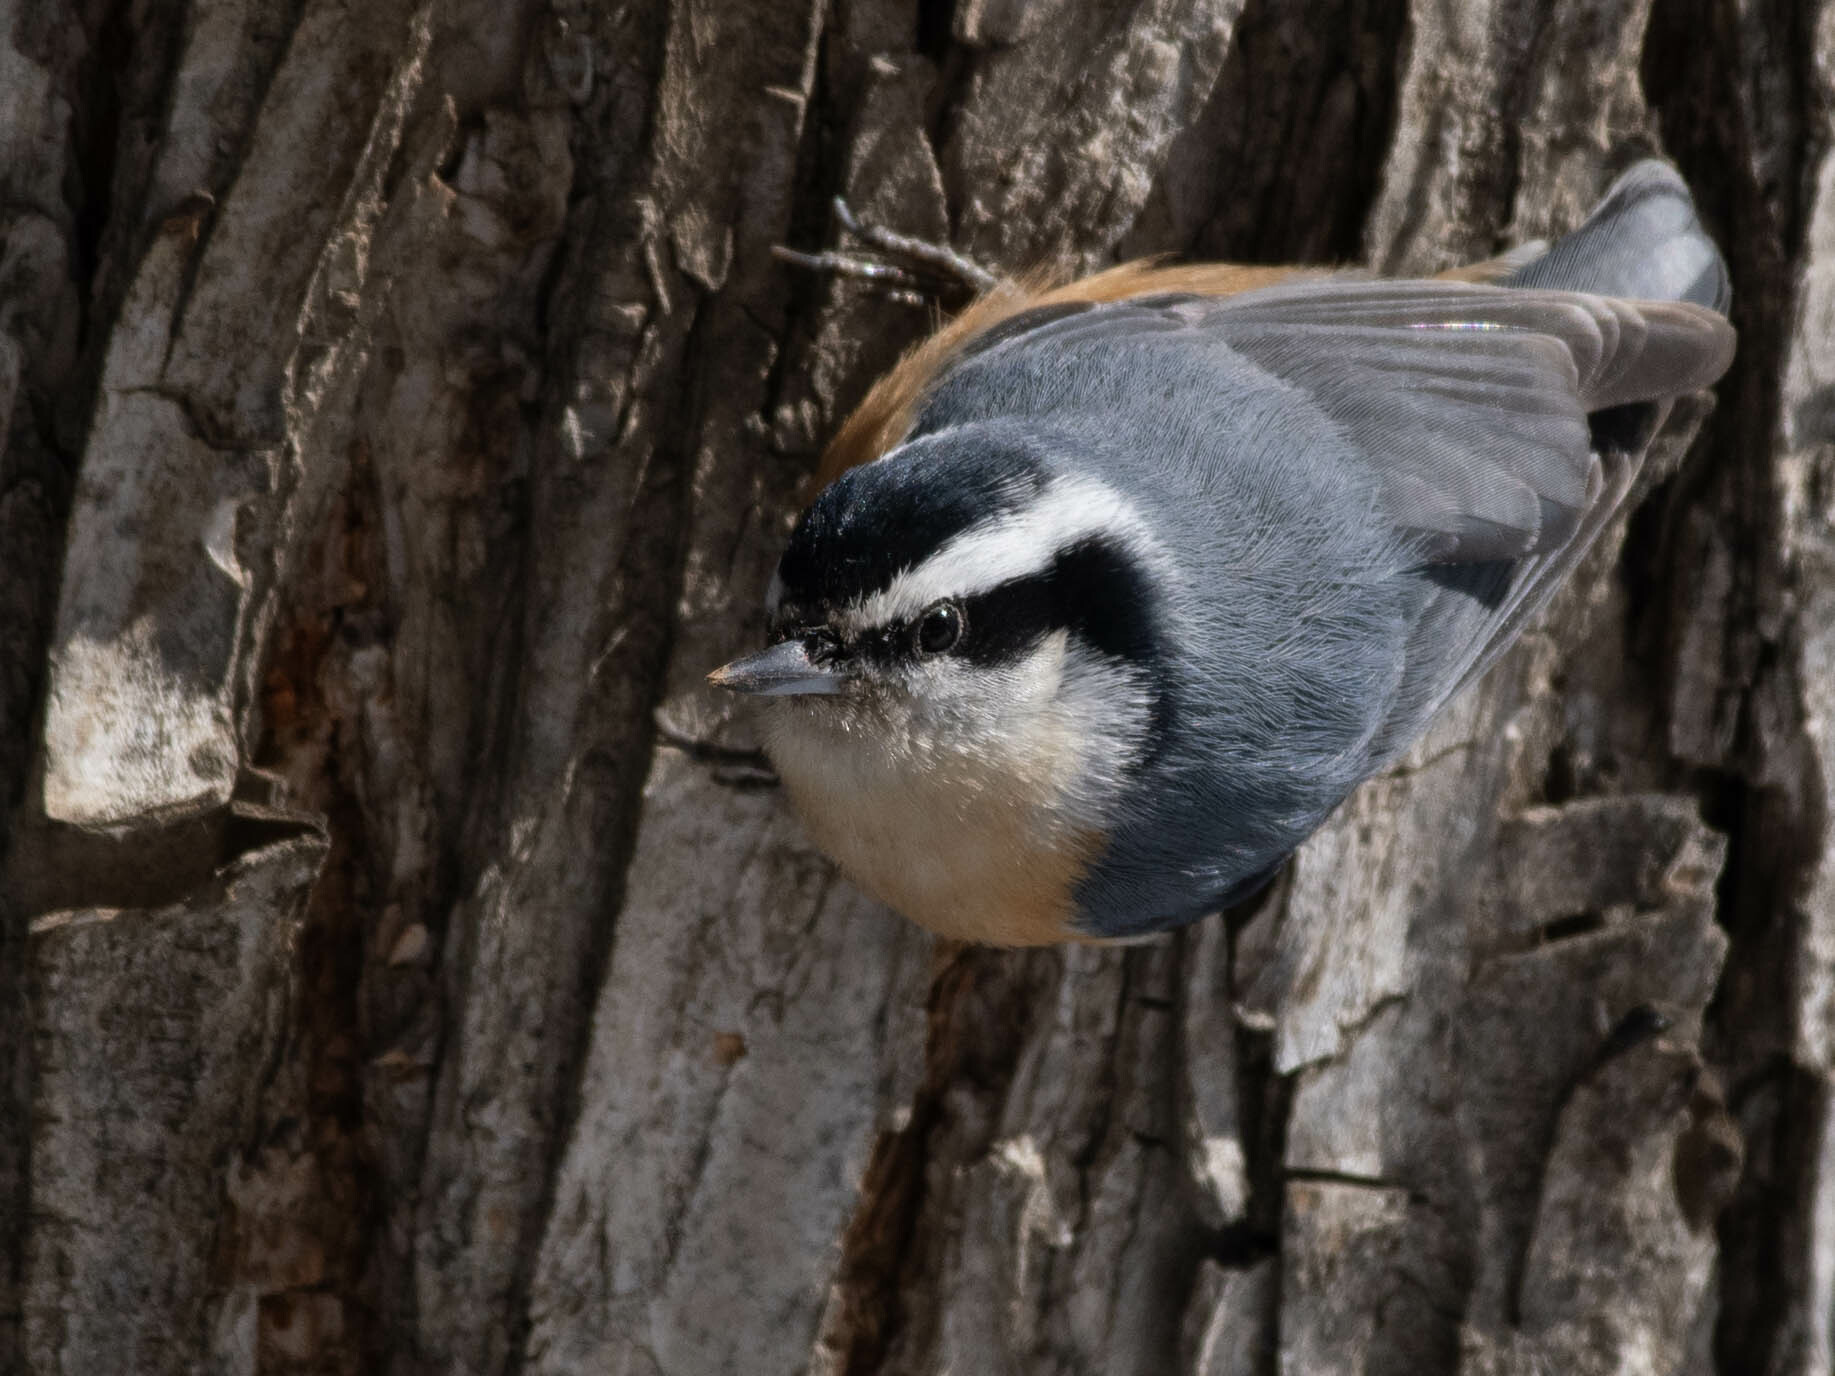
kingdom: Animalia
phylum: Chordata
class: Aves
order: Passeriformes
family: Sittidae
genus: Sitta
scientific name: Sitta canadensis
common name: Red-breasted nuthatch
